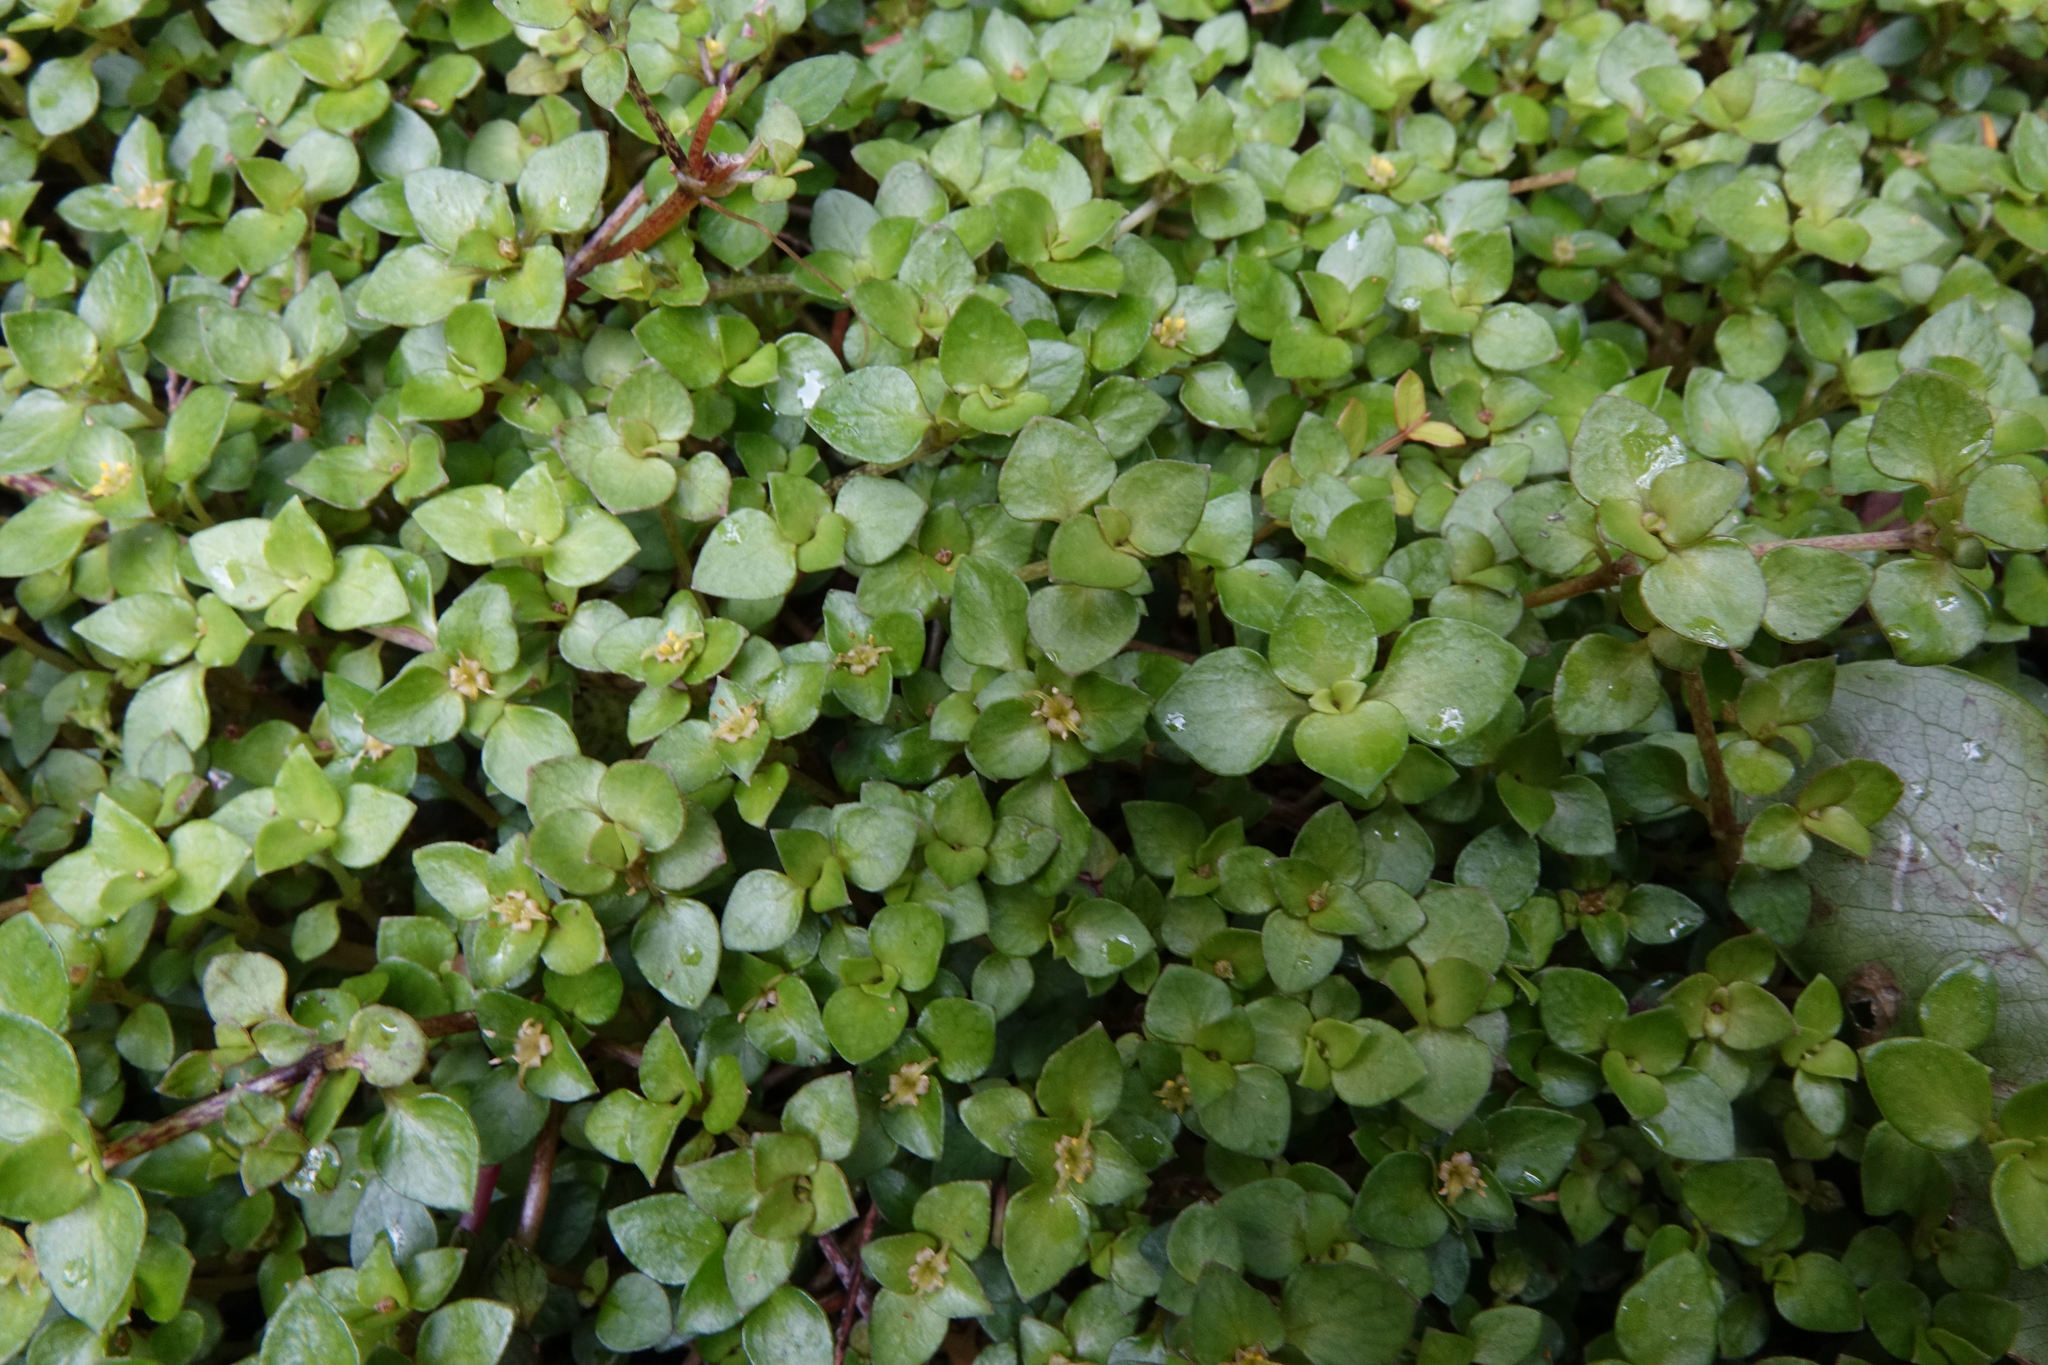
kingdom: Plantae
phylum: Tracheophyta
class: Magnoliopsida
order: Gentianales
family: Rubiaceae
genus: Nertera
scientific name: Nertera granadensis
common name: Beadplant
